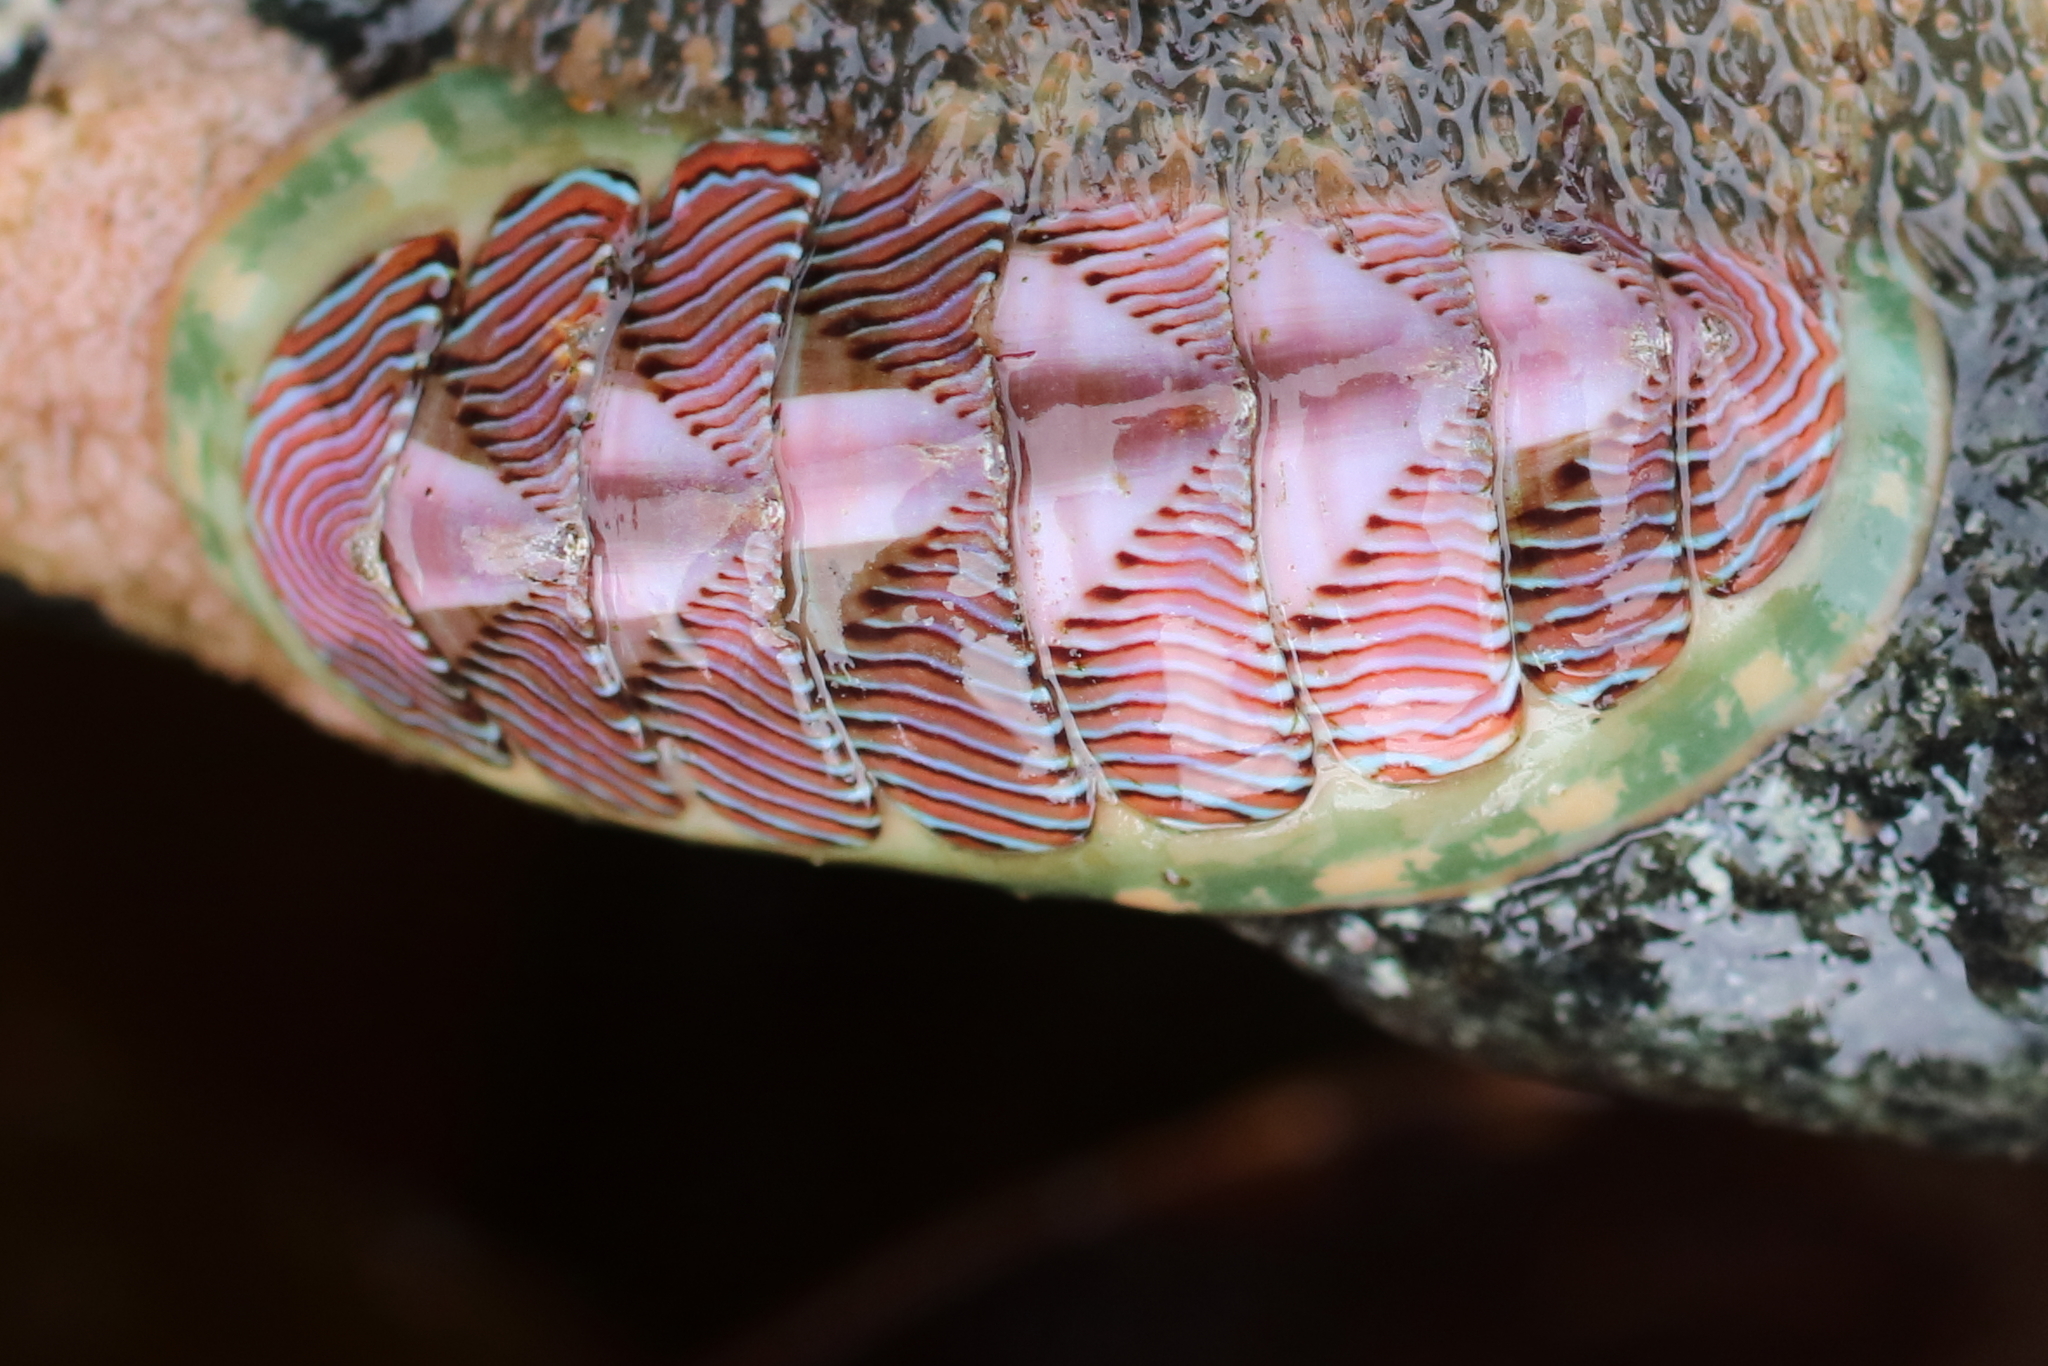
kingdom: Animalia
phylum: Mollusca
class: Polyplacophora
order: Chitonida
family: Tonicellidae
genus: Tonicella
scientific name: Tonicella lineata
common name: Lined chiton
